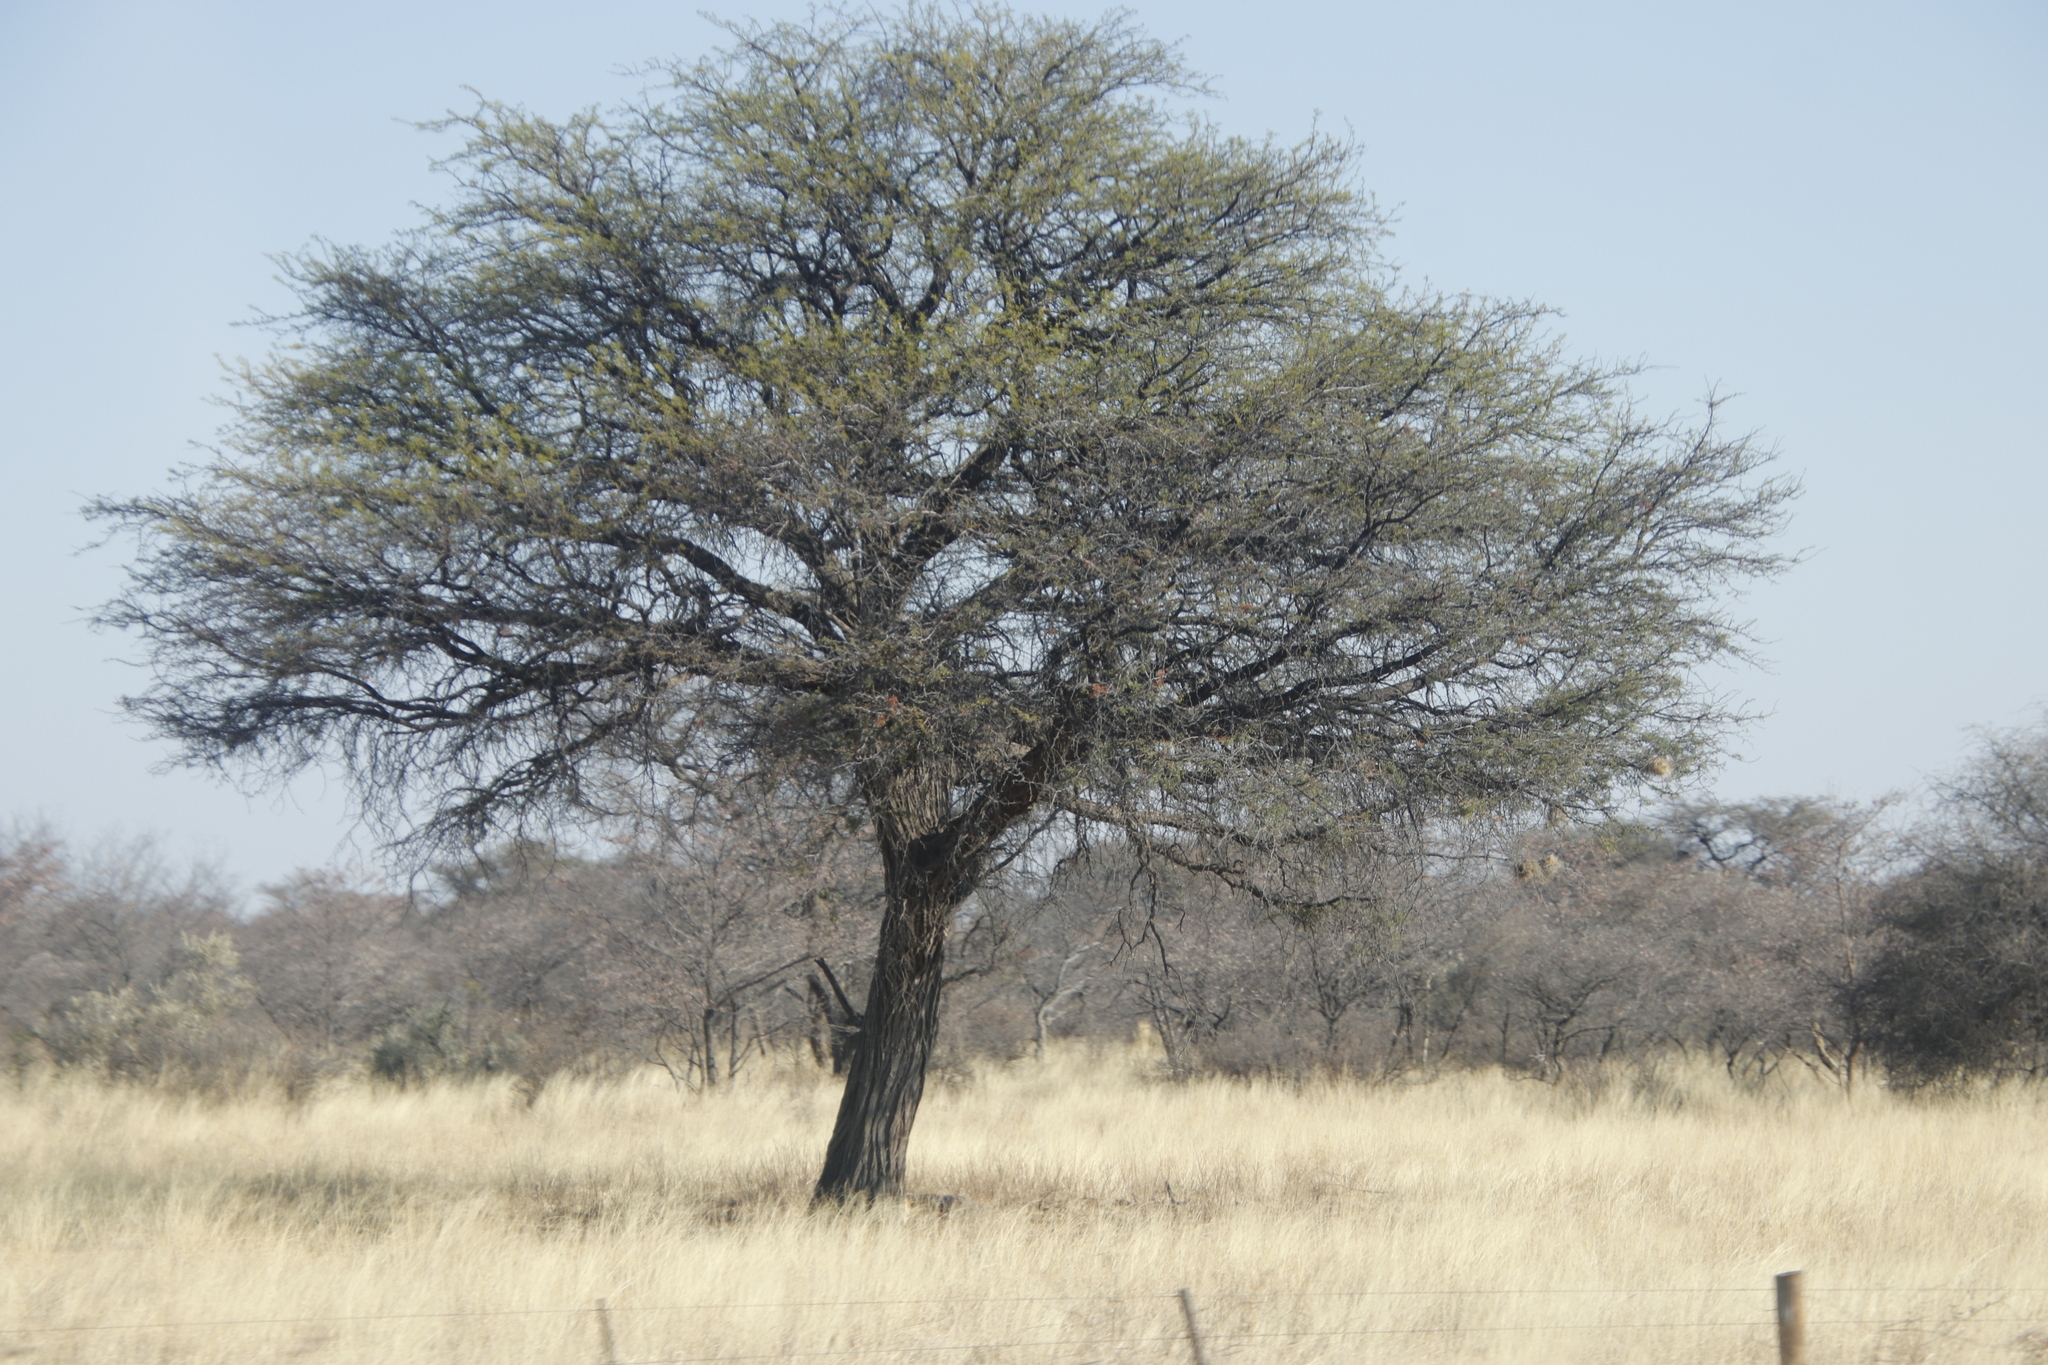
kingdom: Plantae
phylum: Tracheophyta
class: Magnoliopsida
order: Fabales
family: Fabaceae
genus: Vachellia
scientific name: Vachellia erioloba
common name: Camel thorn
